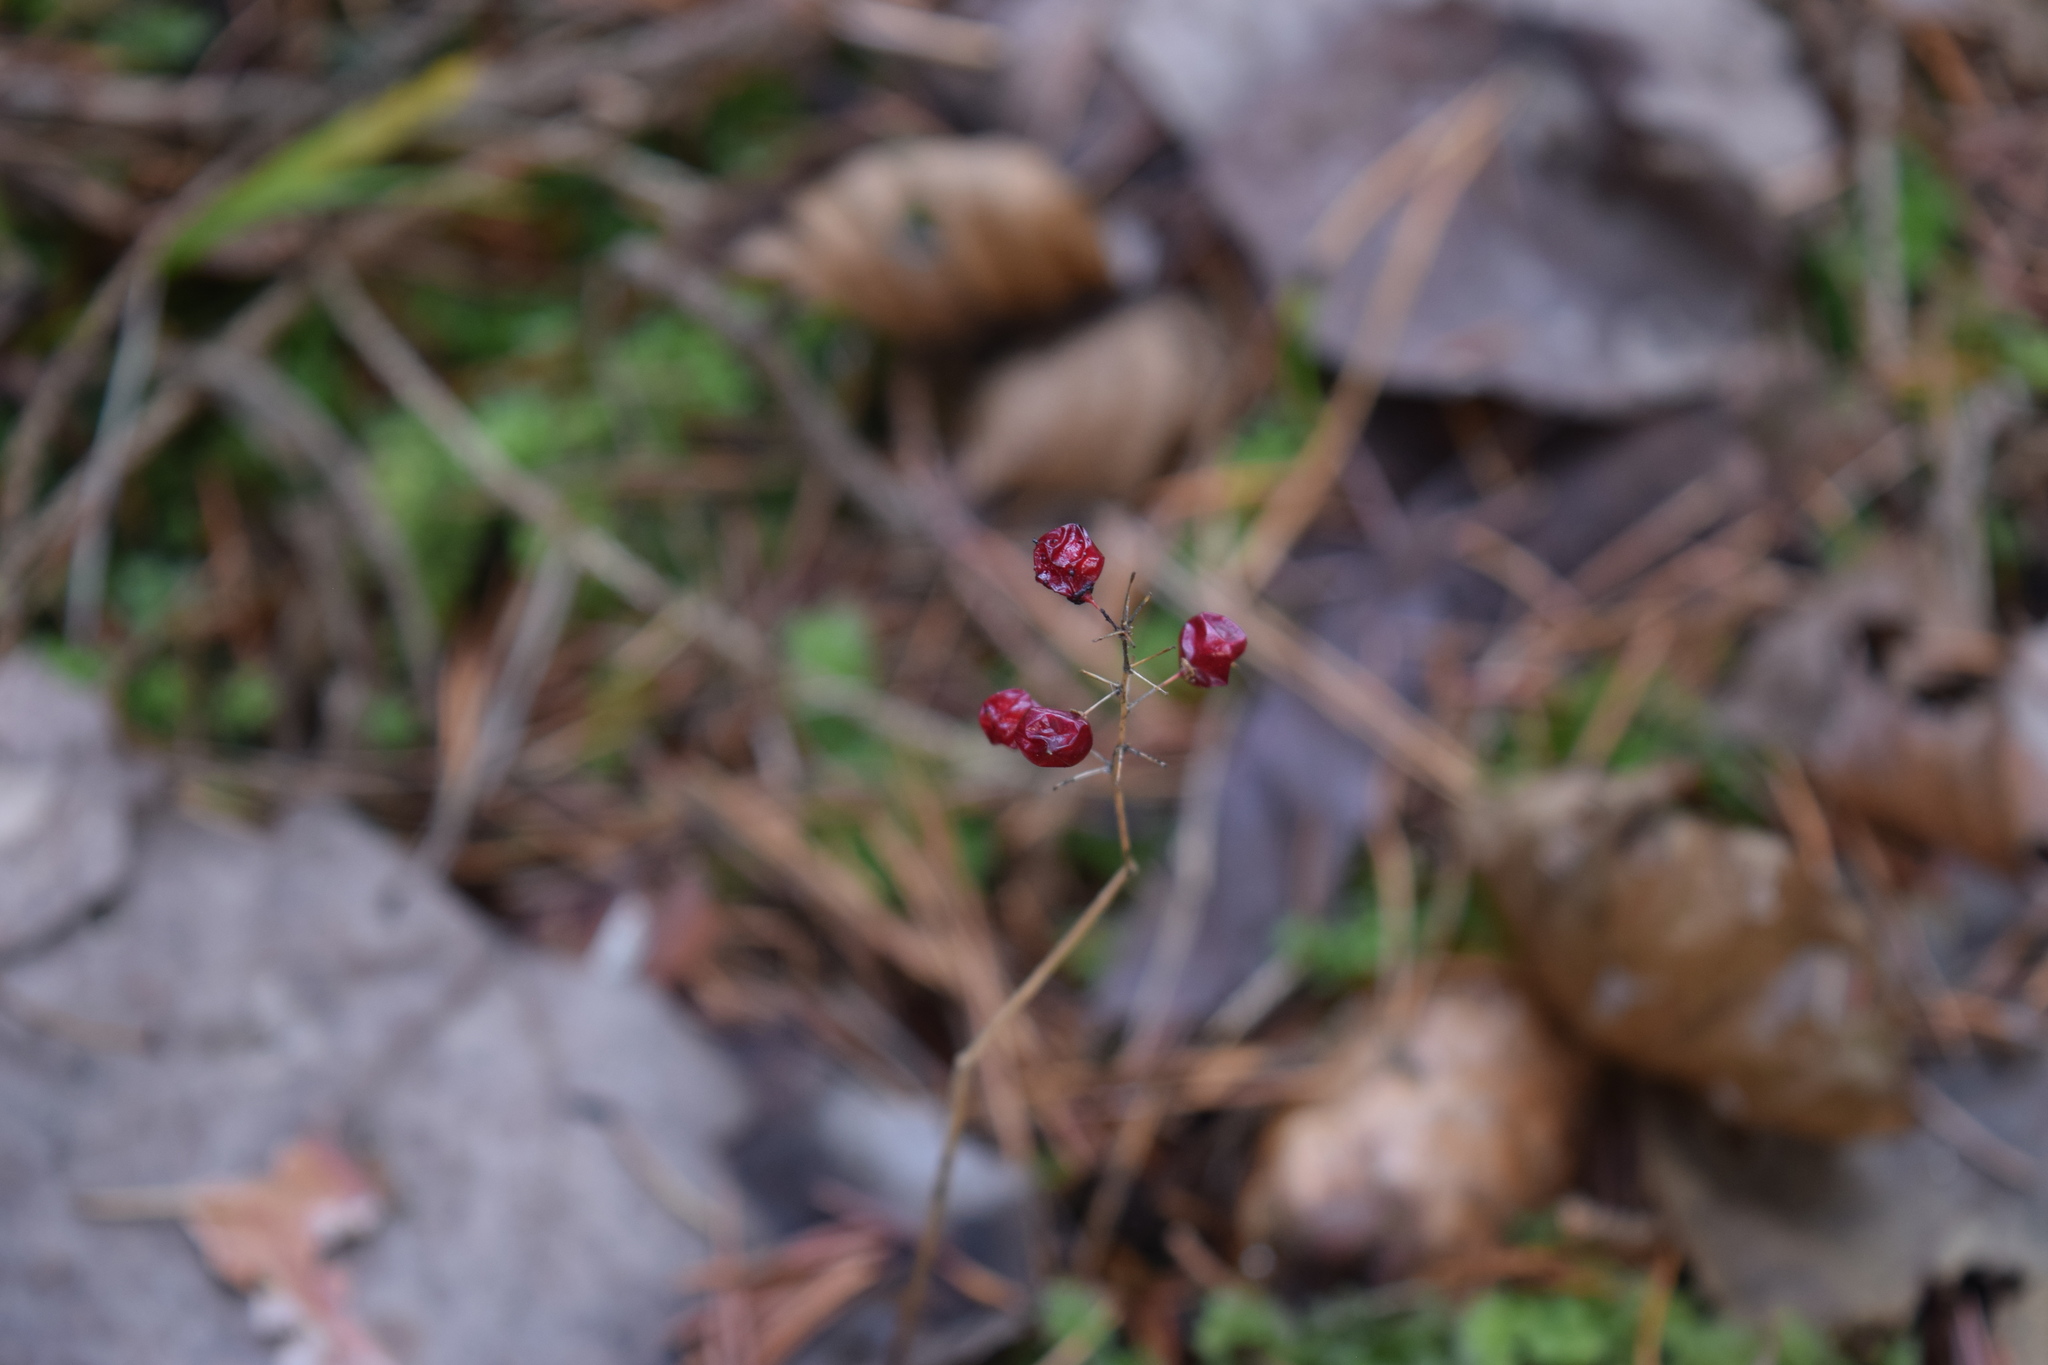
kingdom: Plantae
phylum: Tracheophyta
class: Liliopsida
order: Asparagales
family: Asparagaceae
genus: Maianthemum
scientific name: Maianthemum bifolium
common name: May lily
